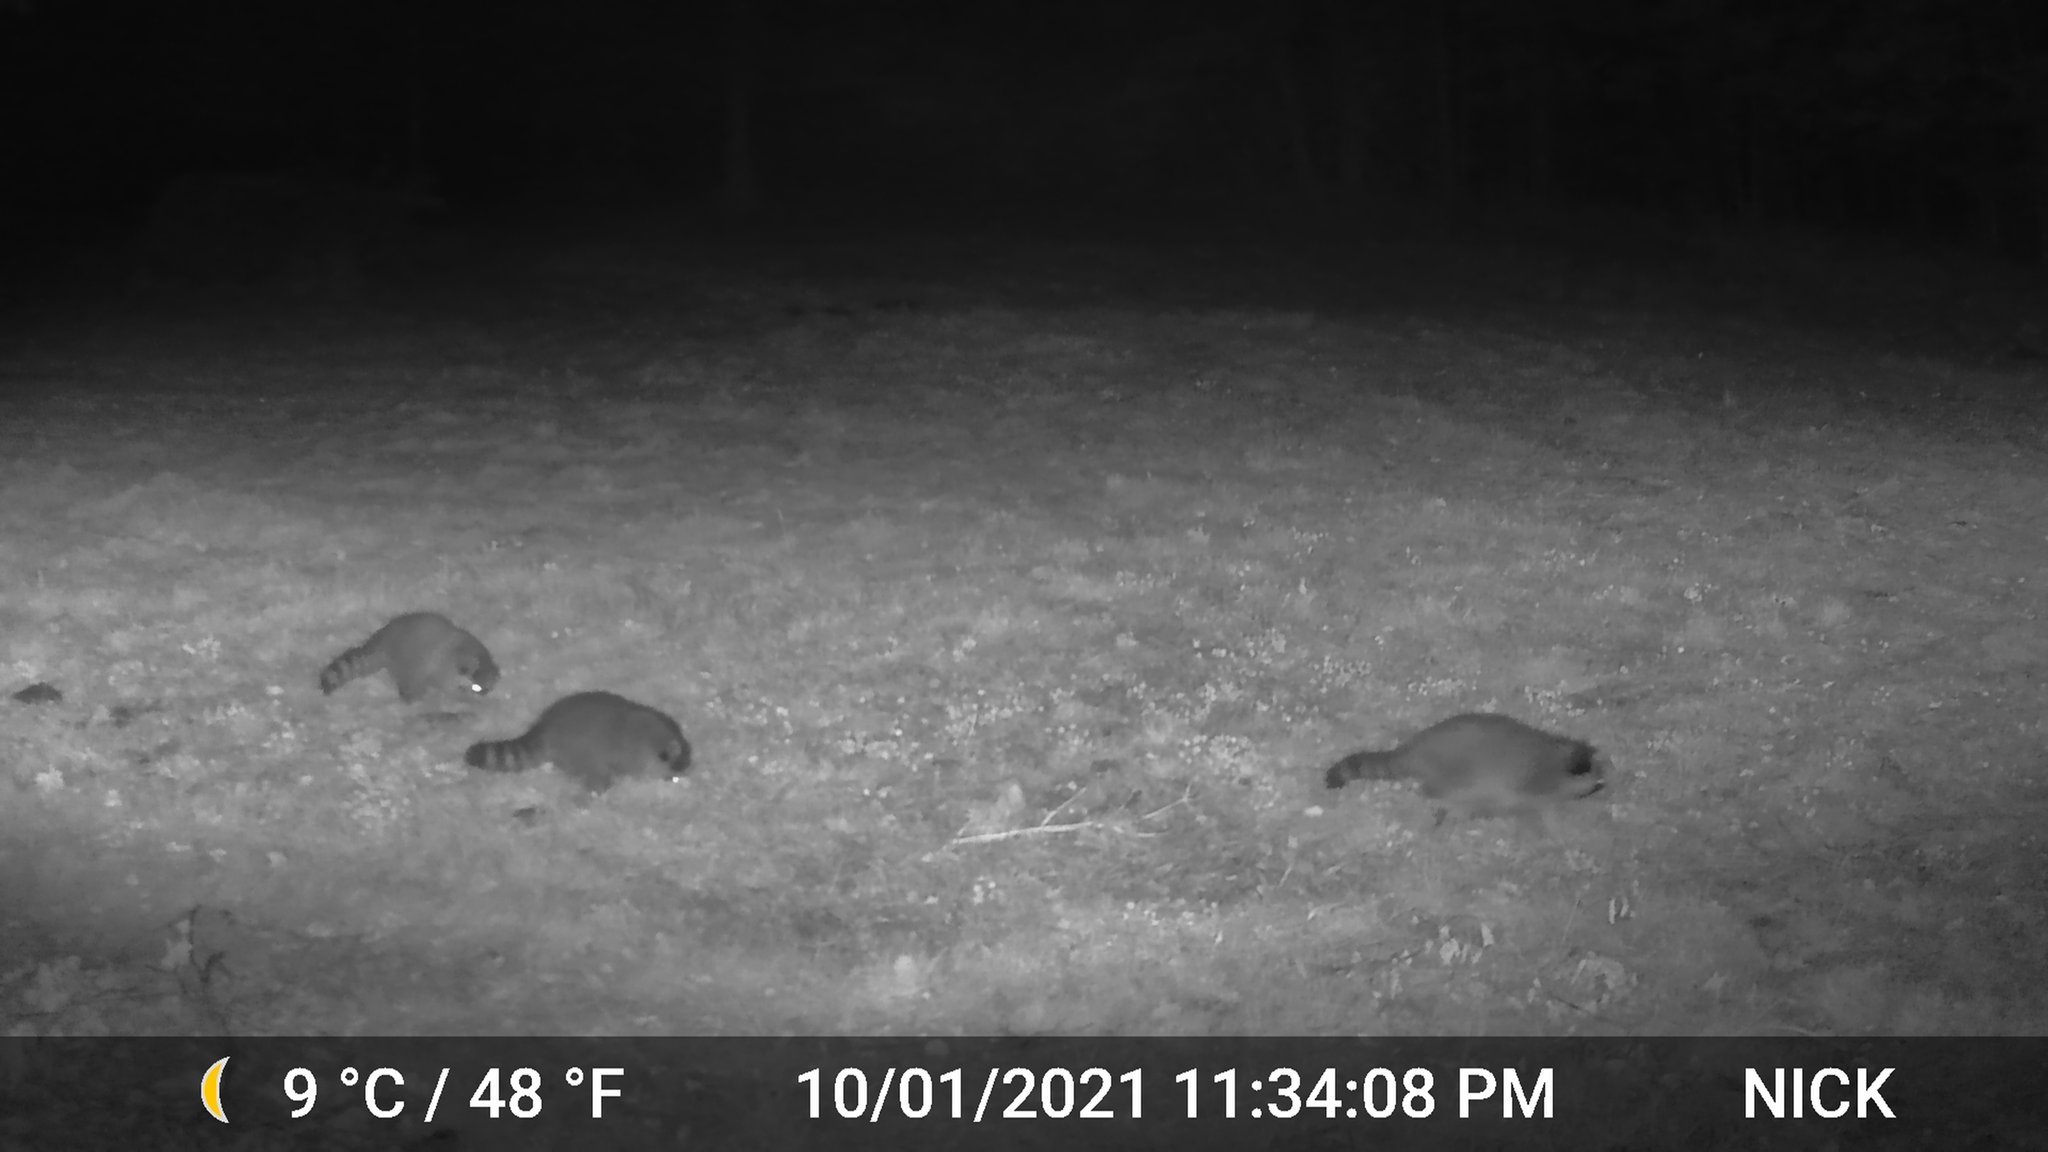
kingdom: Animalia
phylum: Chordata
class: Mammalia
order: Carnivora
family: Procyonidae
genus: Procyon
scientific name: Procyon lotor
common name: Raccoon
